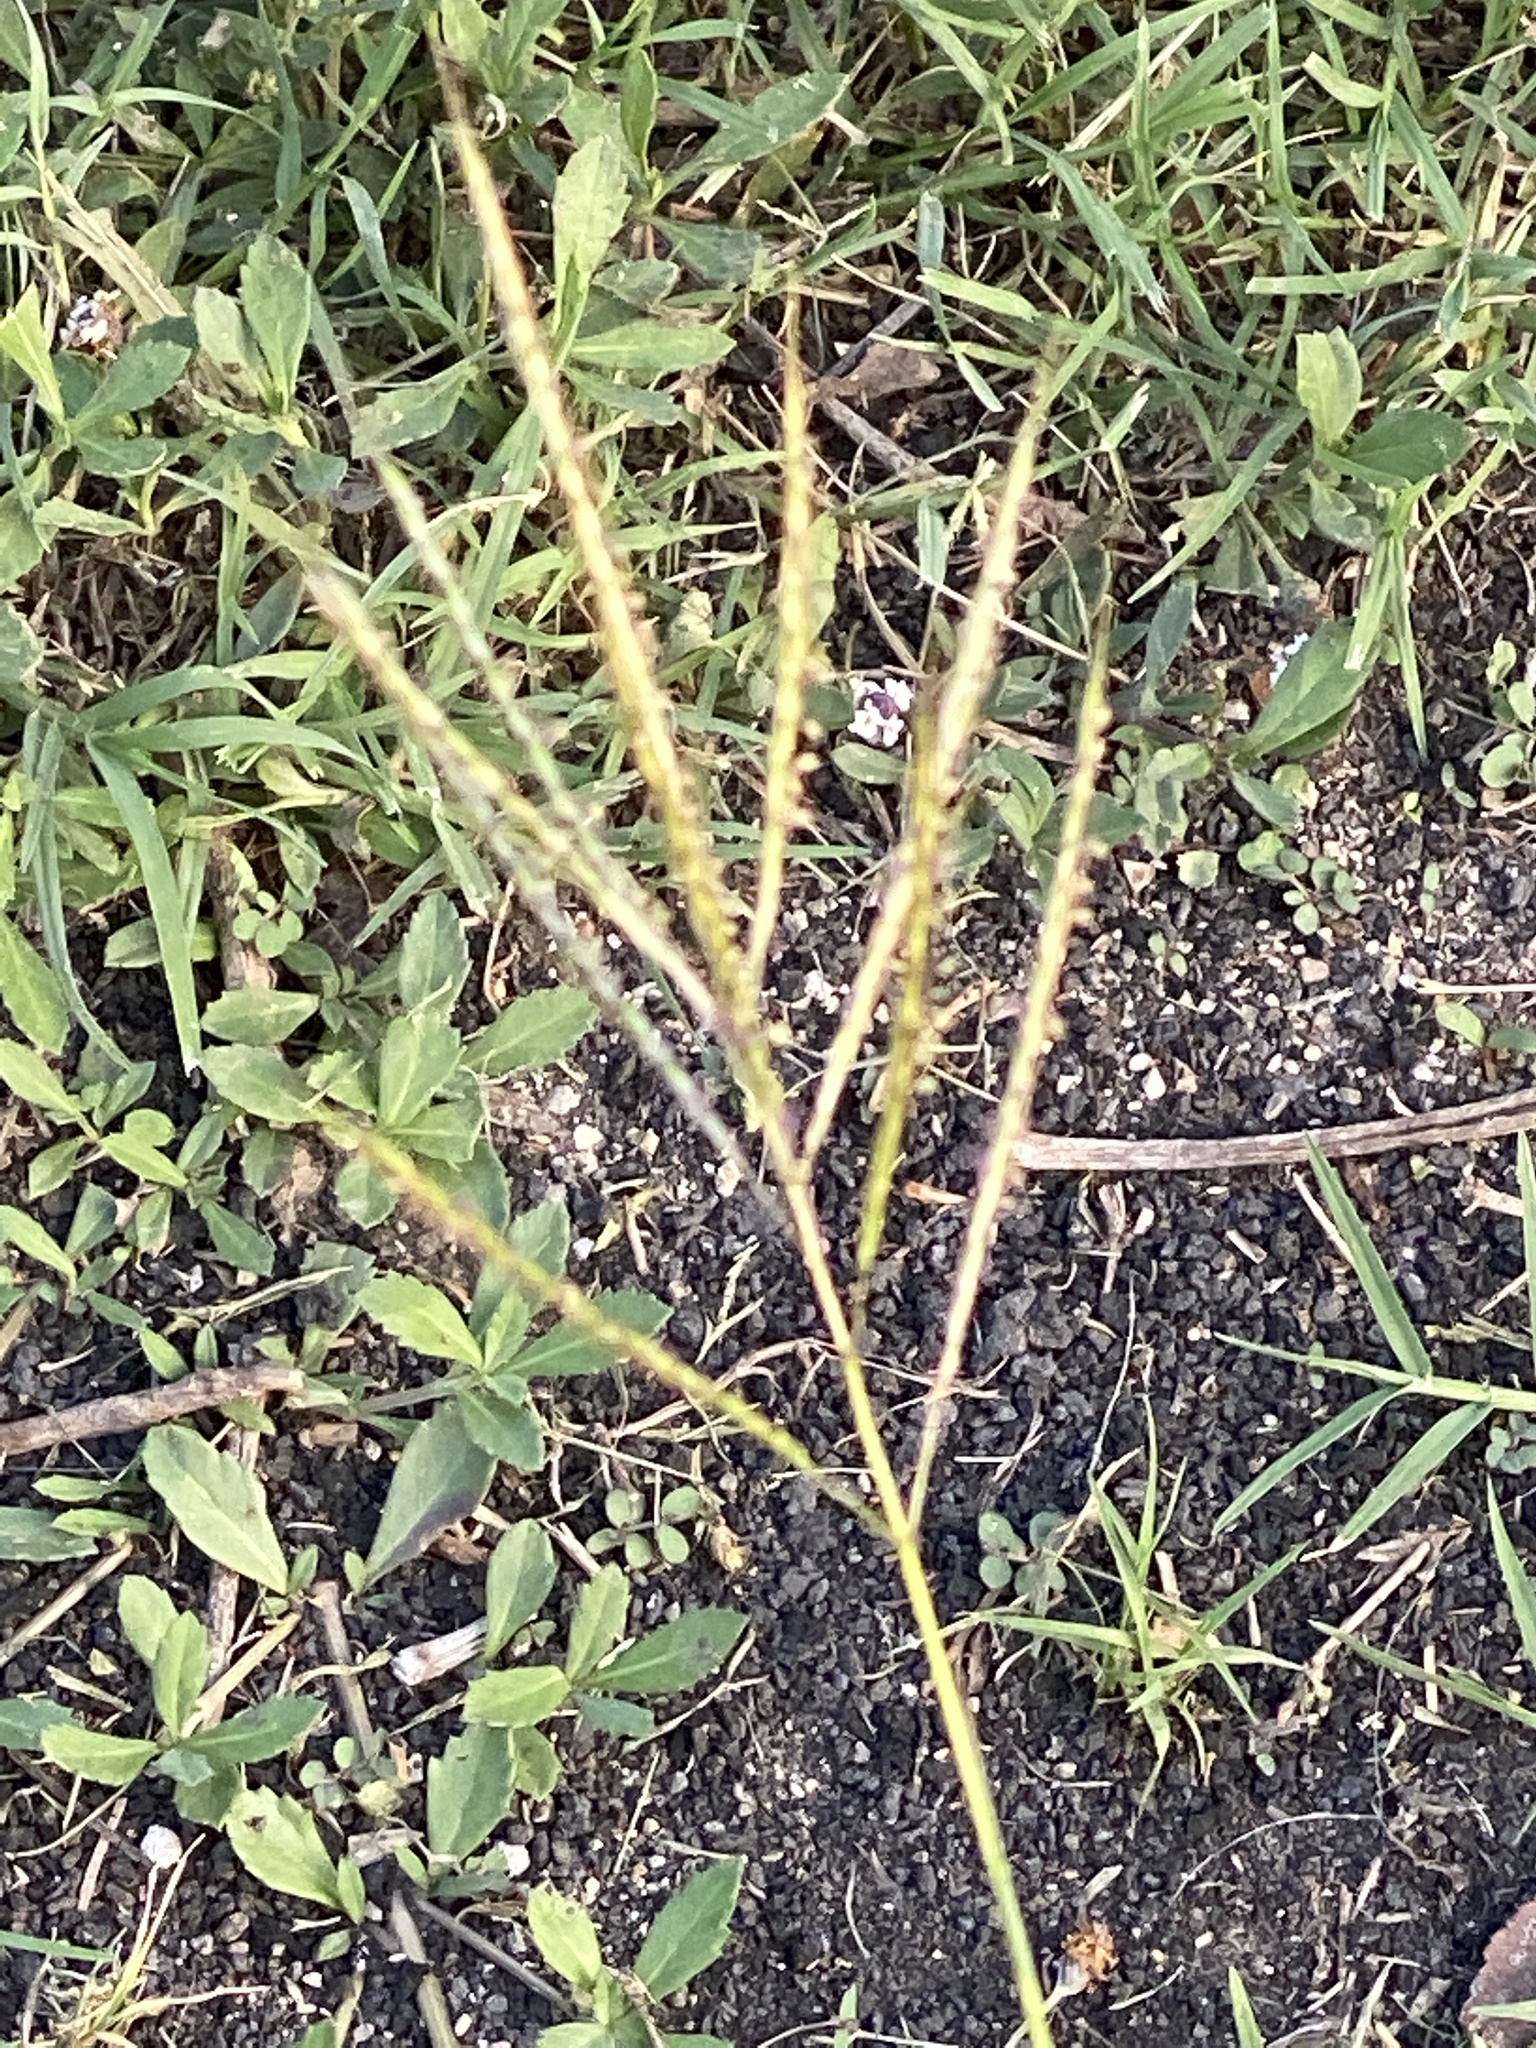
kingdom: Plantae
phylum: Tracheophyta
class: Liliopsida
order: Poales
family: Poaceae
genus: Bothriochloa
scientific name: Bothriochloa ischaemum
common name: Yellow bluestem
